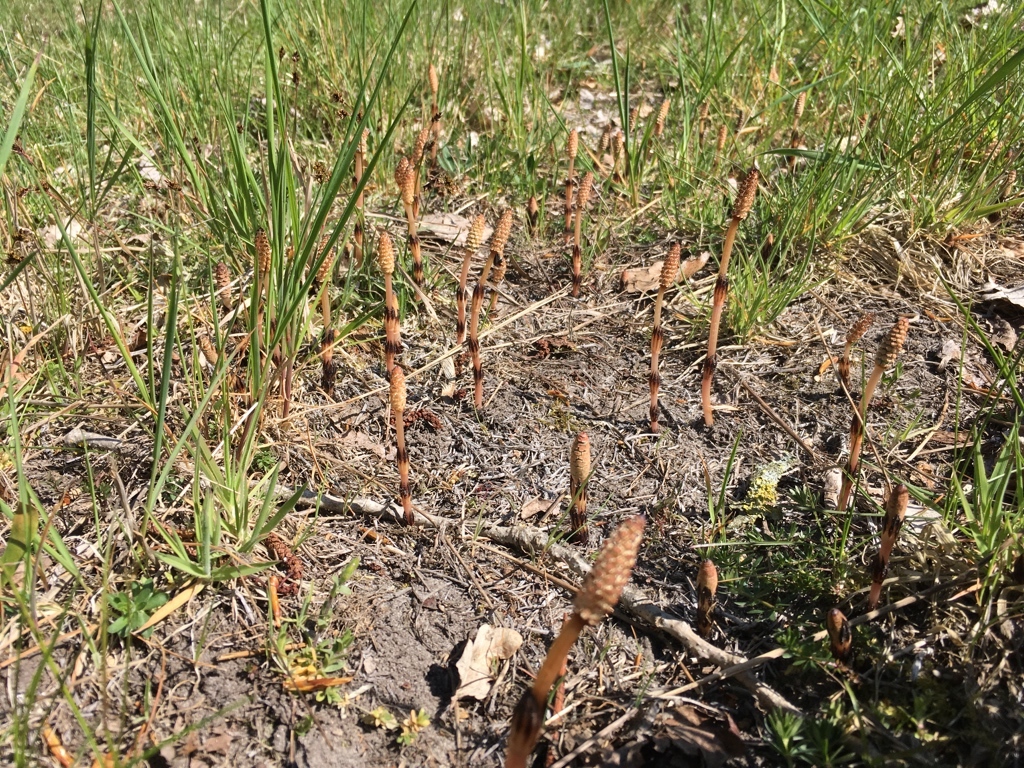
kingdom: Plantae
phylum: Tracheophyta
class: Polypodiopsida
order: Equisetales
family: Equisetaceae
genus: Equisetum
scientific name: Equisetum arvense
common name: Field horsetail
